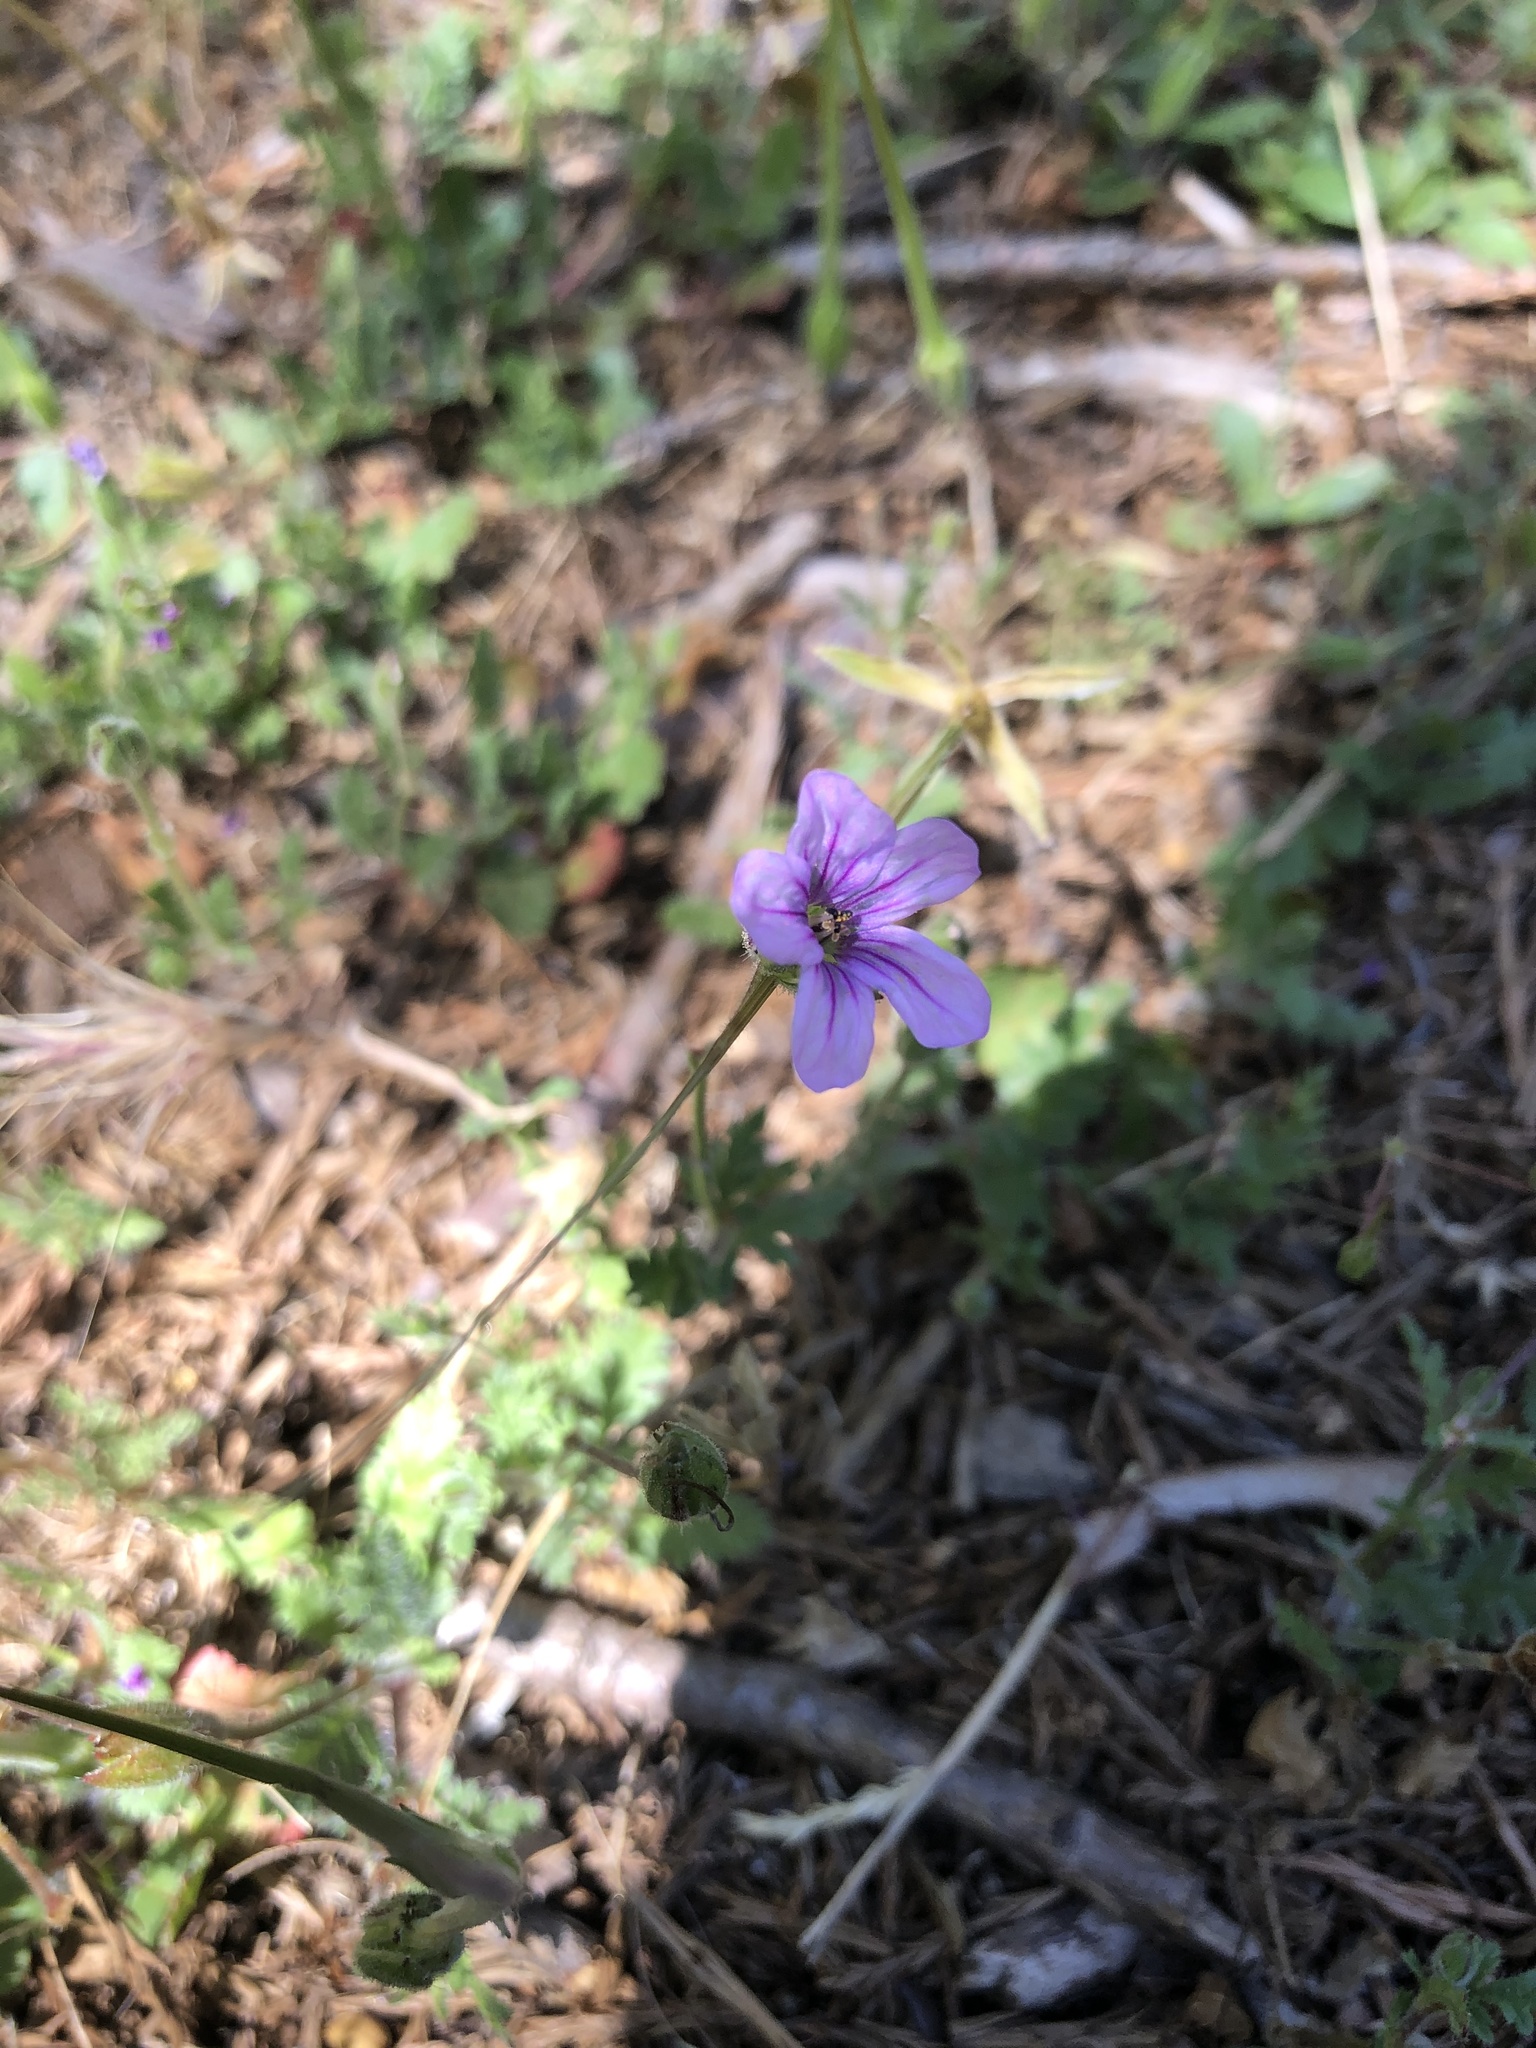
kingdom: Plantae
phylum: Tracheophyta
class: Magnoliopsida
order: Geraniales
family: Geraniaceae
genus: Erodium
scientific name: Erodium botrys
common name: Mediterranean stork's-bill
